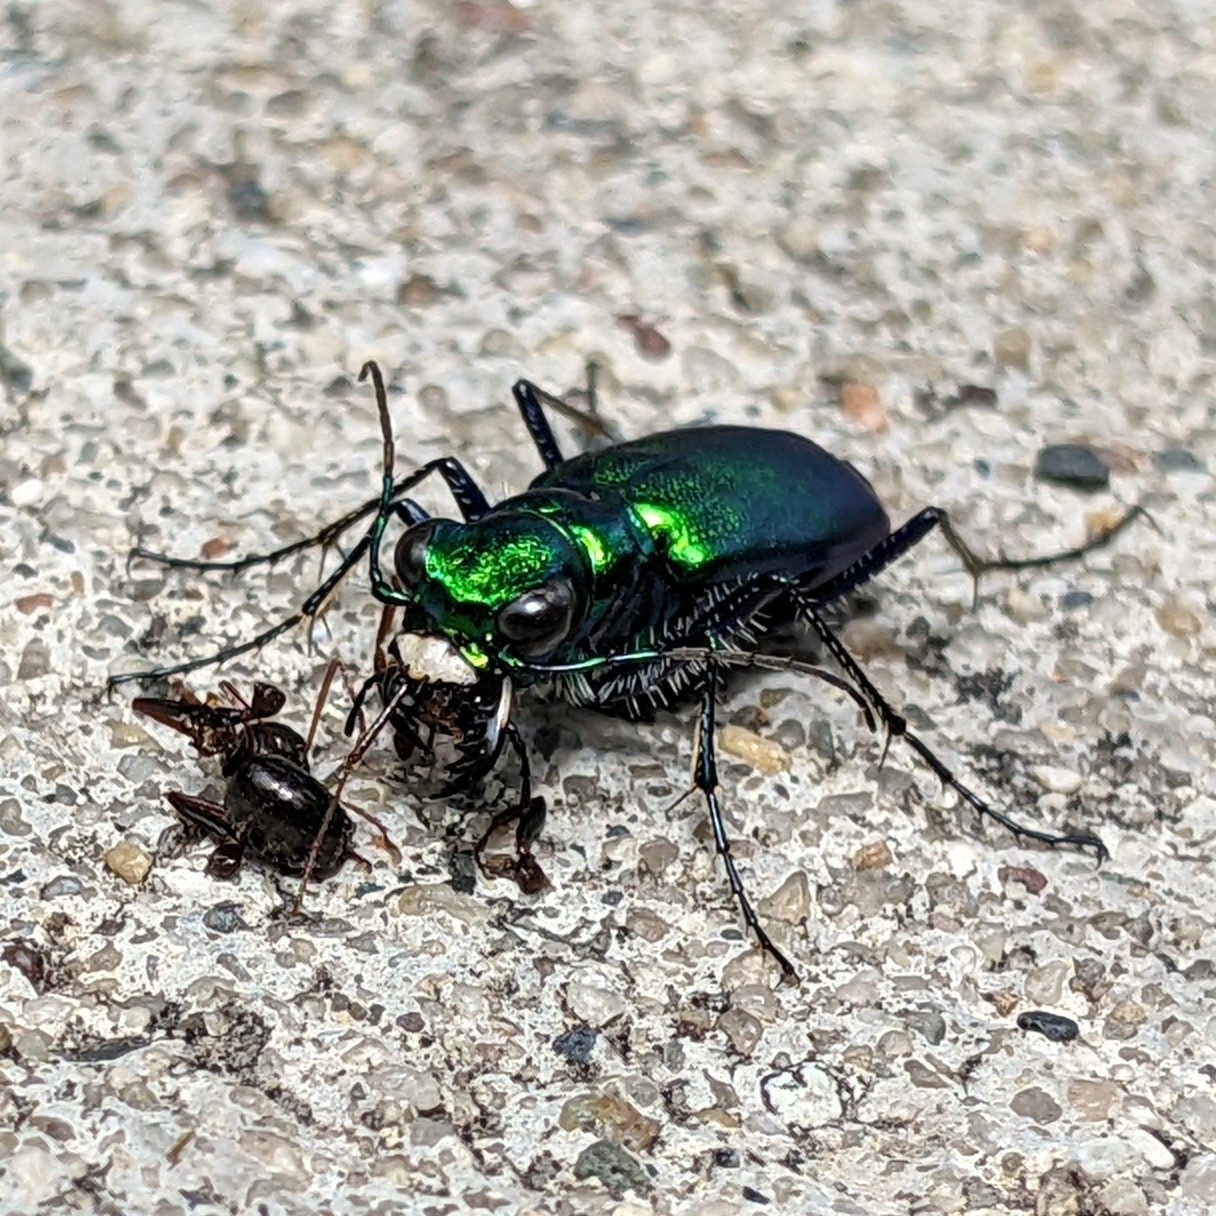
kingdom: Animalia
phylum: Arthropoda
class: Insecta
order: Coleoptera
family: Carabidae
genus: Cicindela
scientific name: Cicindela sexguttata
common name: Six-spotted tiger beetle
